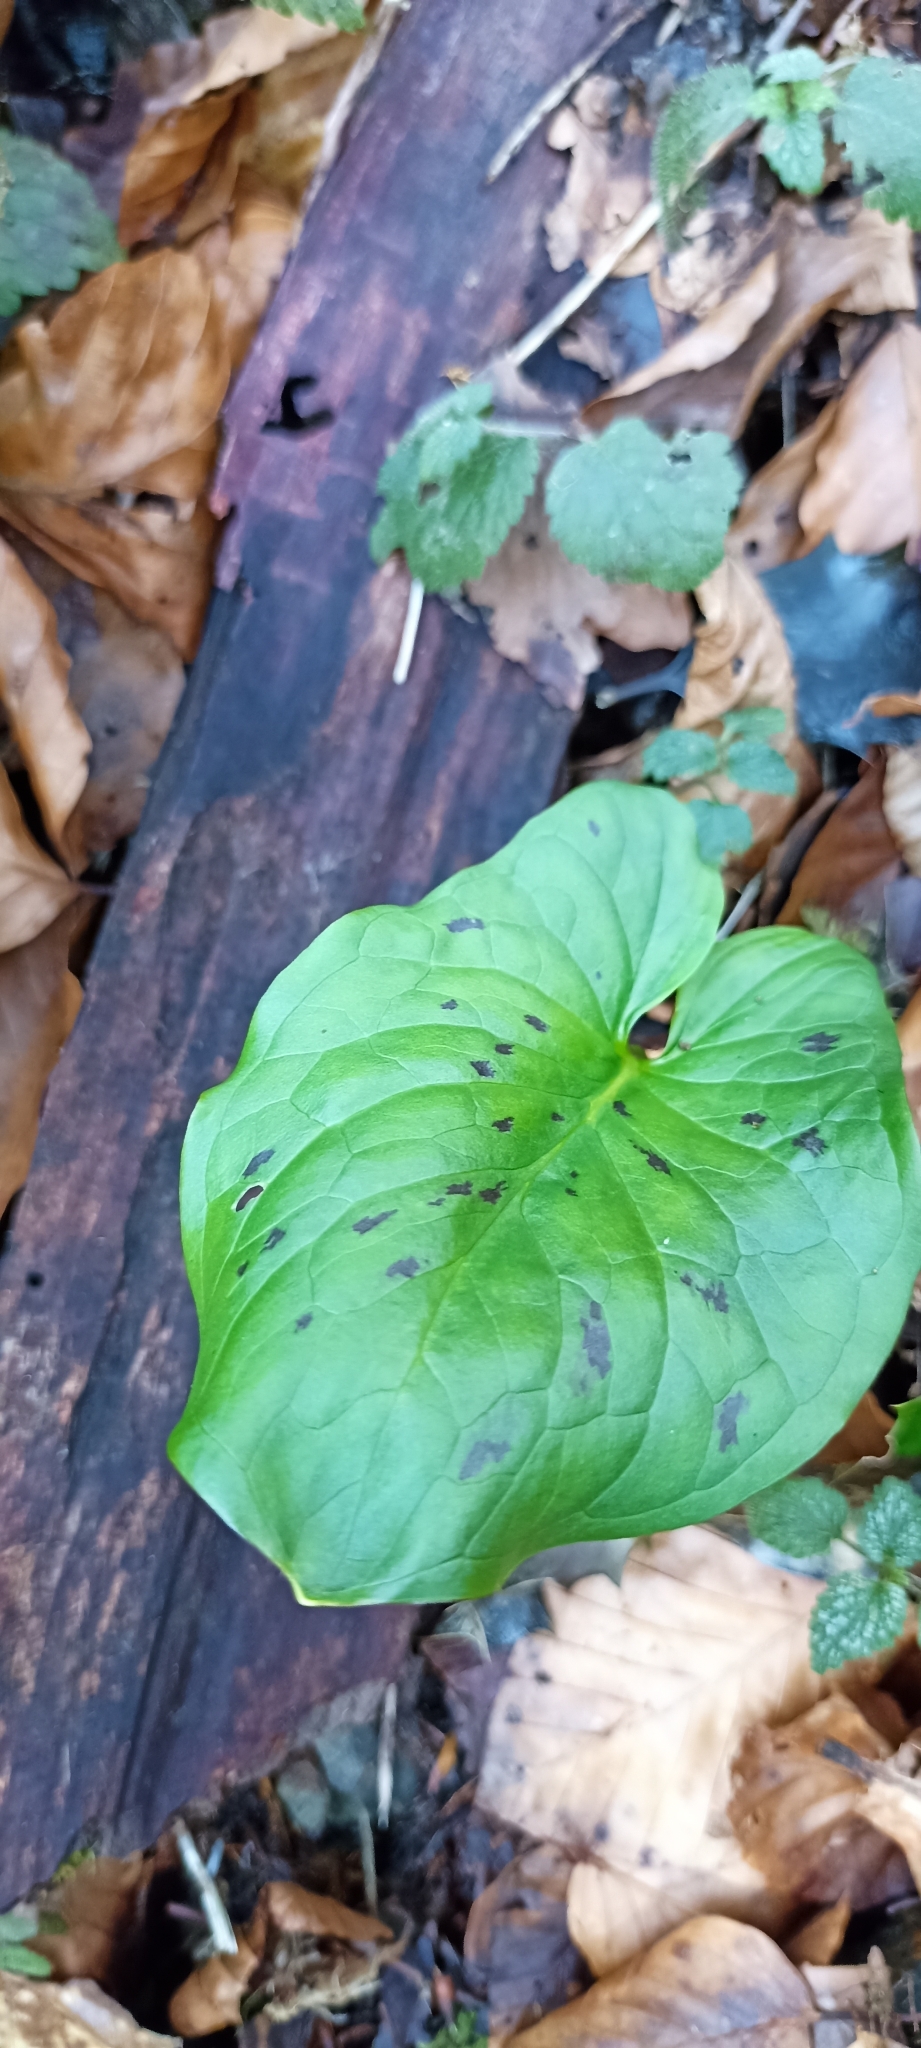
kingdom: Plantae
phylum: Tracheophyta
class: Liliopsida
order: Alismatales
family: Araceae
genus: Arum
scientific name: Arum maculatum
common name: Lords-and-ladies
